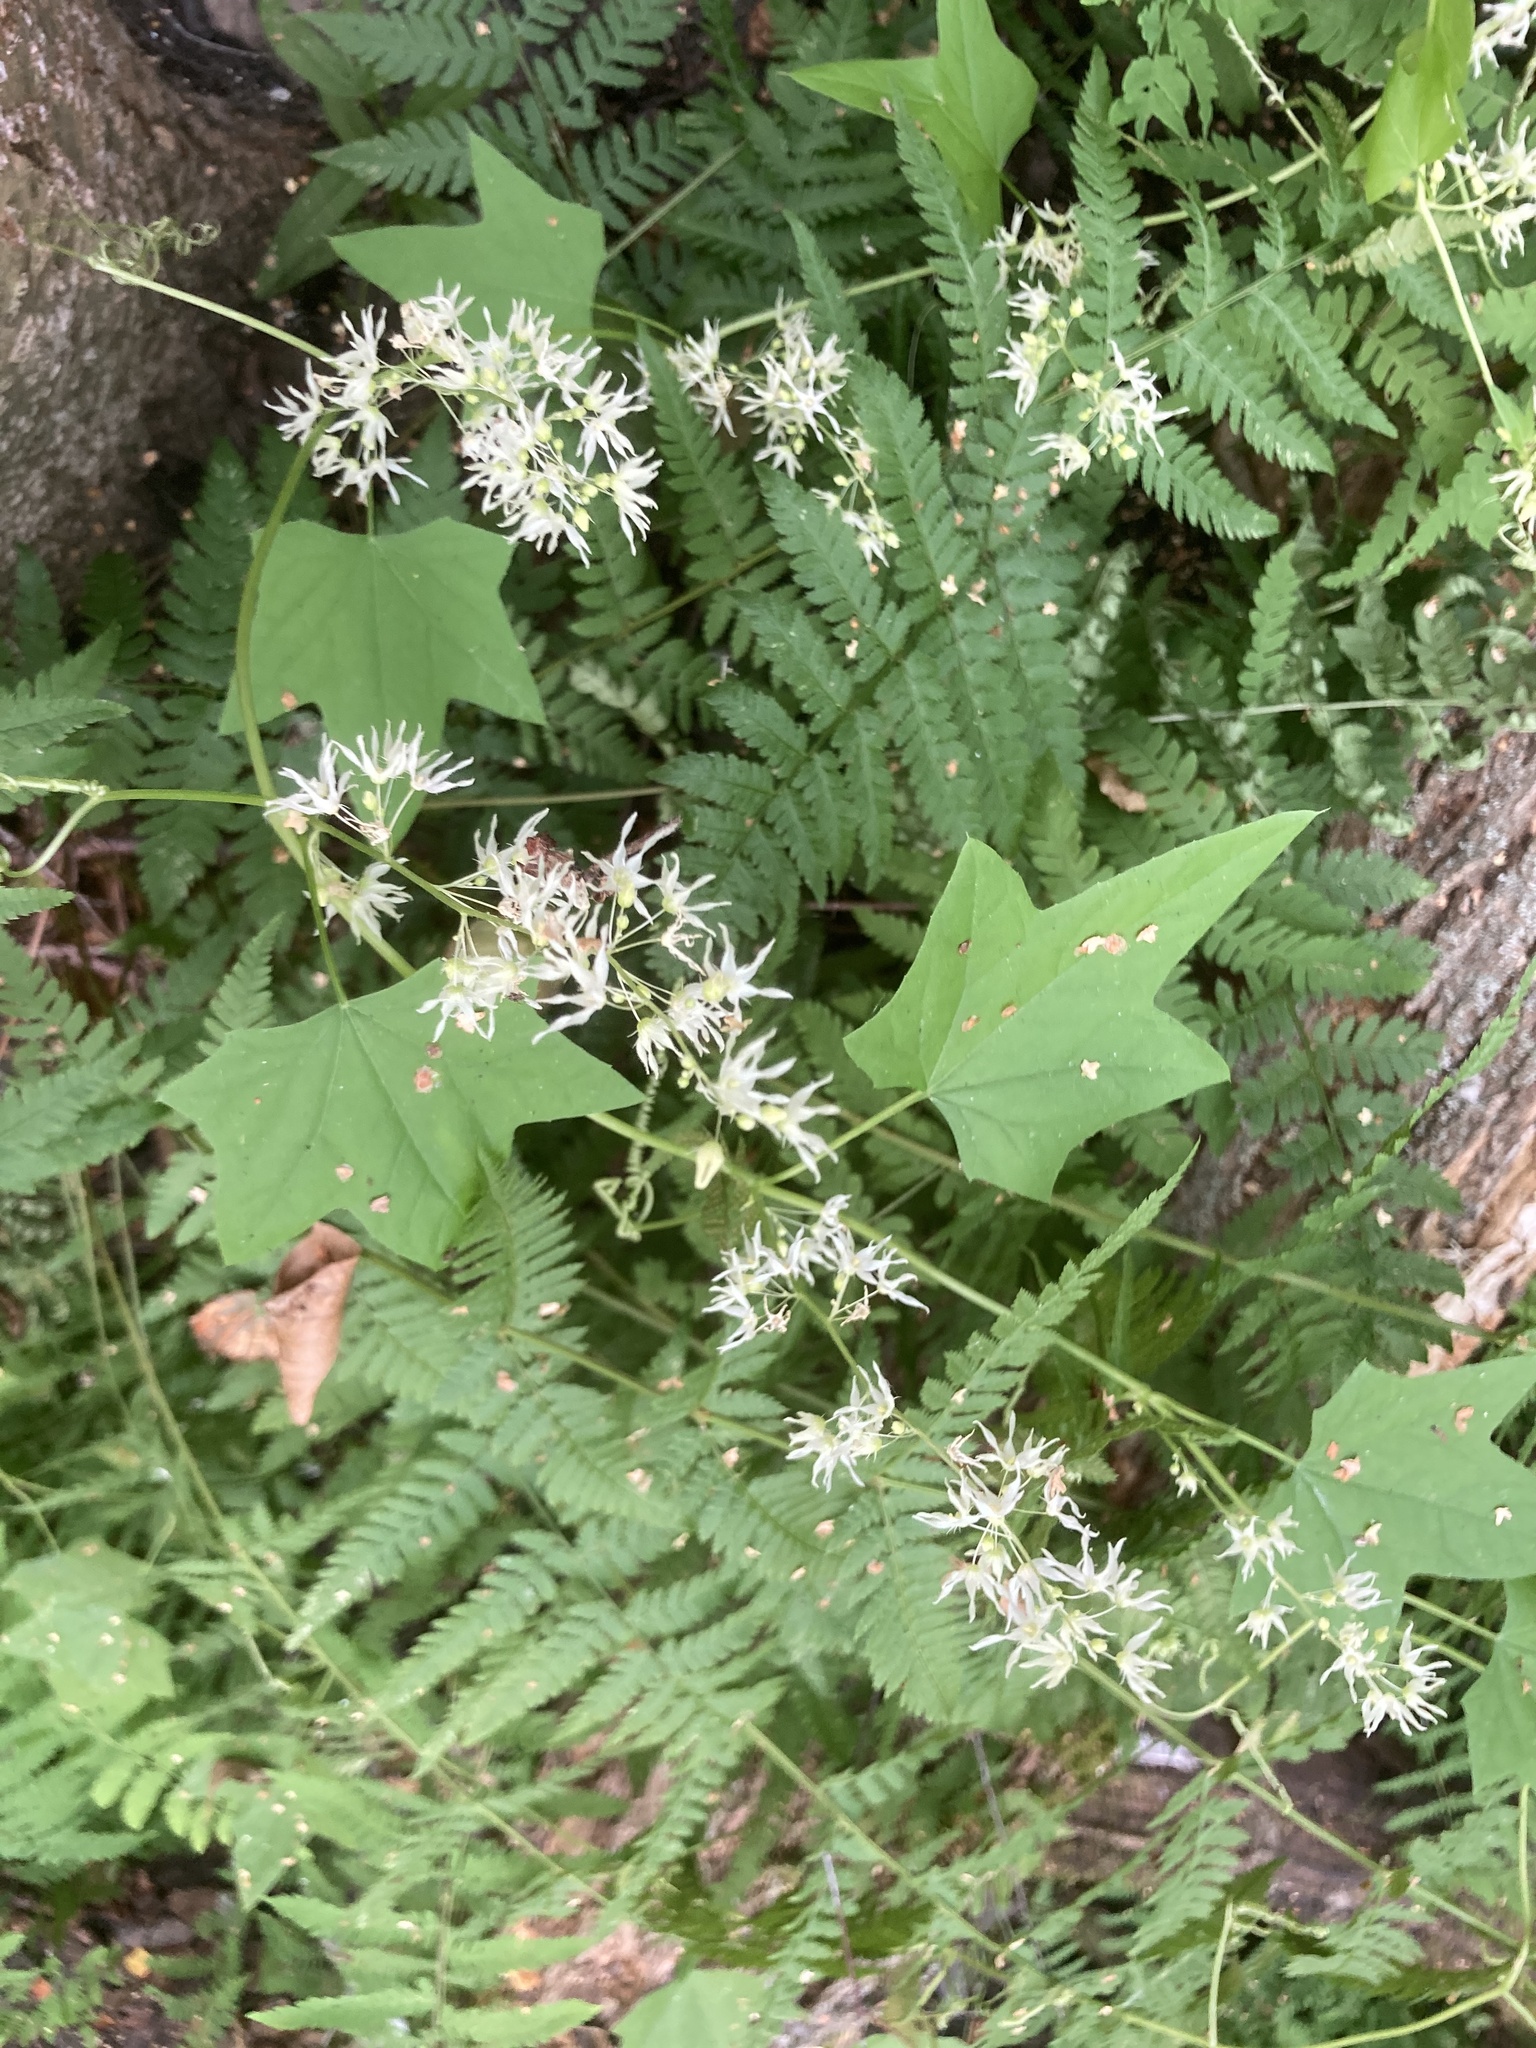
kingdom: Plantae
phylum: Tracheophyta
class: Magnoliopsida
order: Cucurbitales
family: Cucurbitaceae
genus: Echinocystis
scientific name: Echinocystis lobata
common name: Wild cucumber
